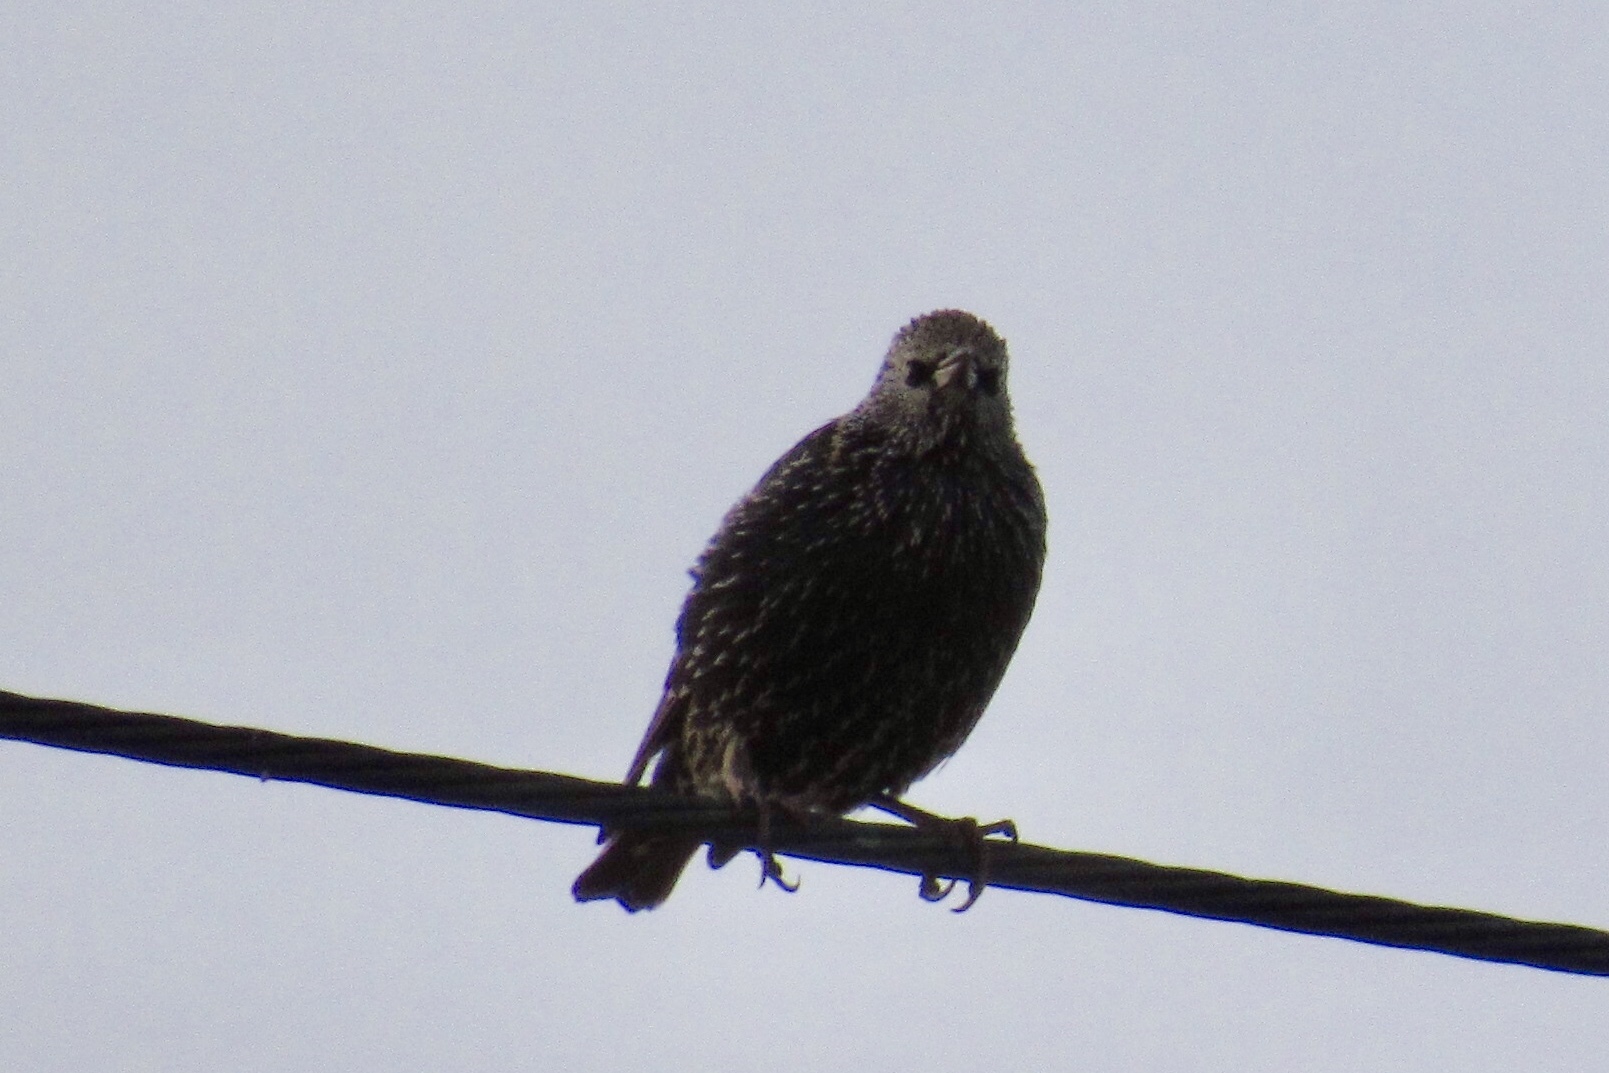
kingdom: Animalia
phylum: Chordata
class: Aves
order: Passeriformes
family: Sturnidae
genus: Sturnus
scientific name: Sturnus vulgaris
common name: Common starling
